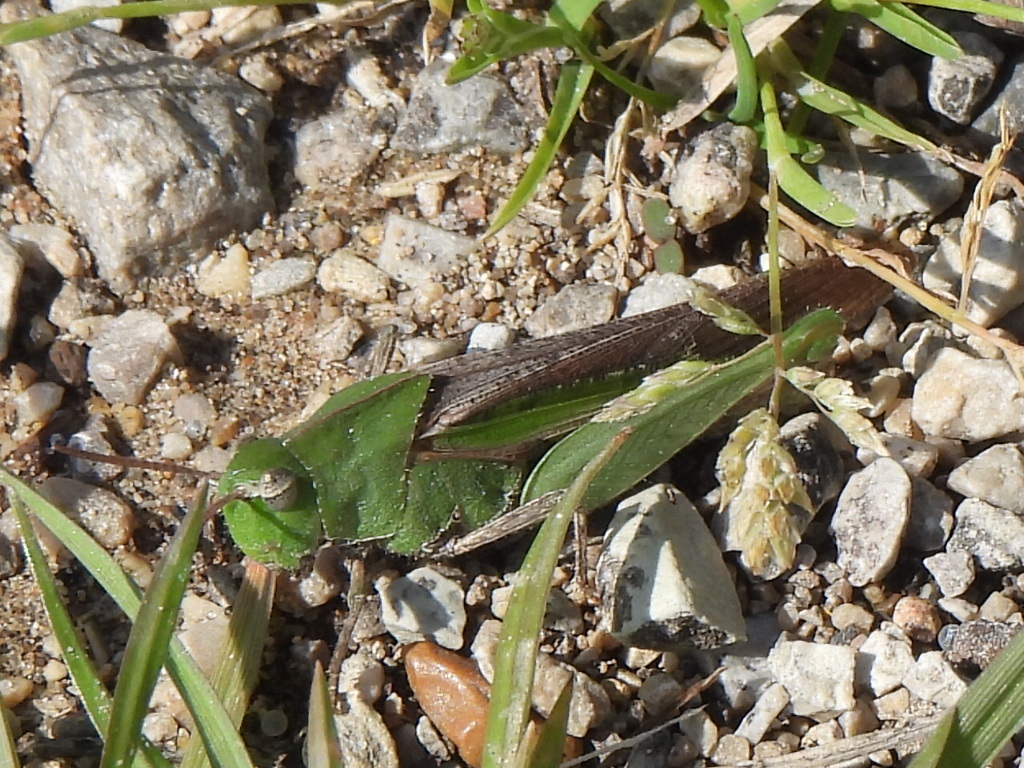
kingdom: Animalia
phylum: Arthropoda
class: Insecta
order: Orthoptera
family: Acrididae
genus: Chortophaga
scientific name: Chortophaga viridifasciata
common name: Green-striped grasshopper
